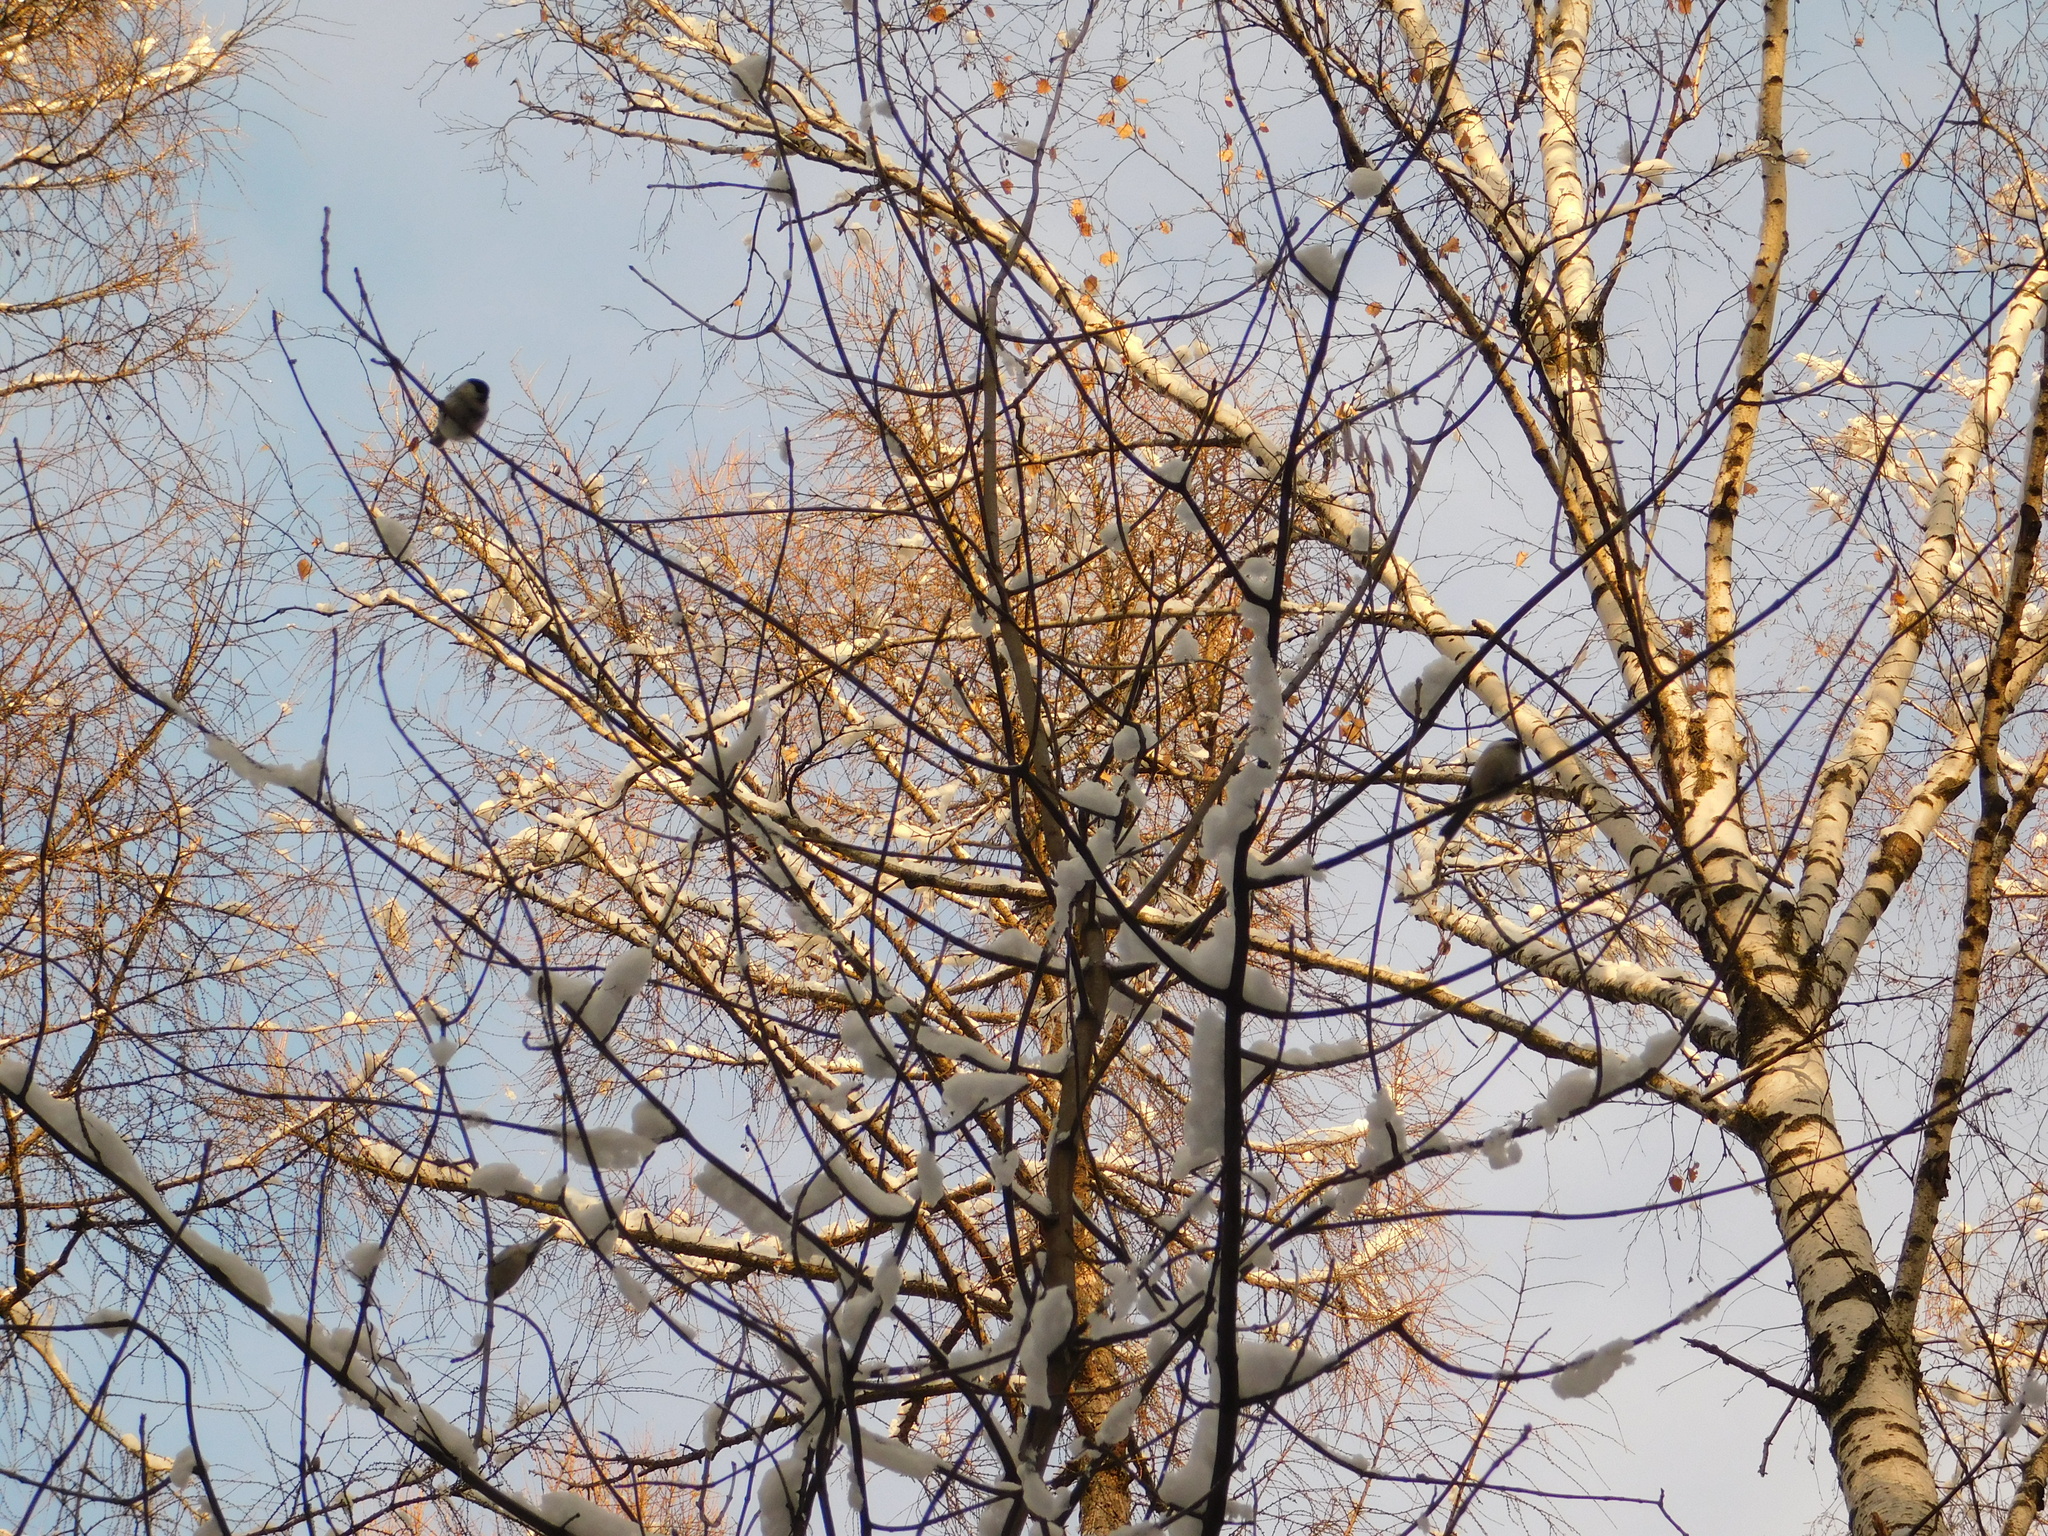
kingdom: Animalia
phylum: Chordata
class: Aves
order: Passeriformes
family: Paridae
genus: Poecile
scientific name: Poecile montanus
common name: Willow tit
